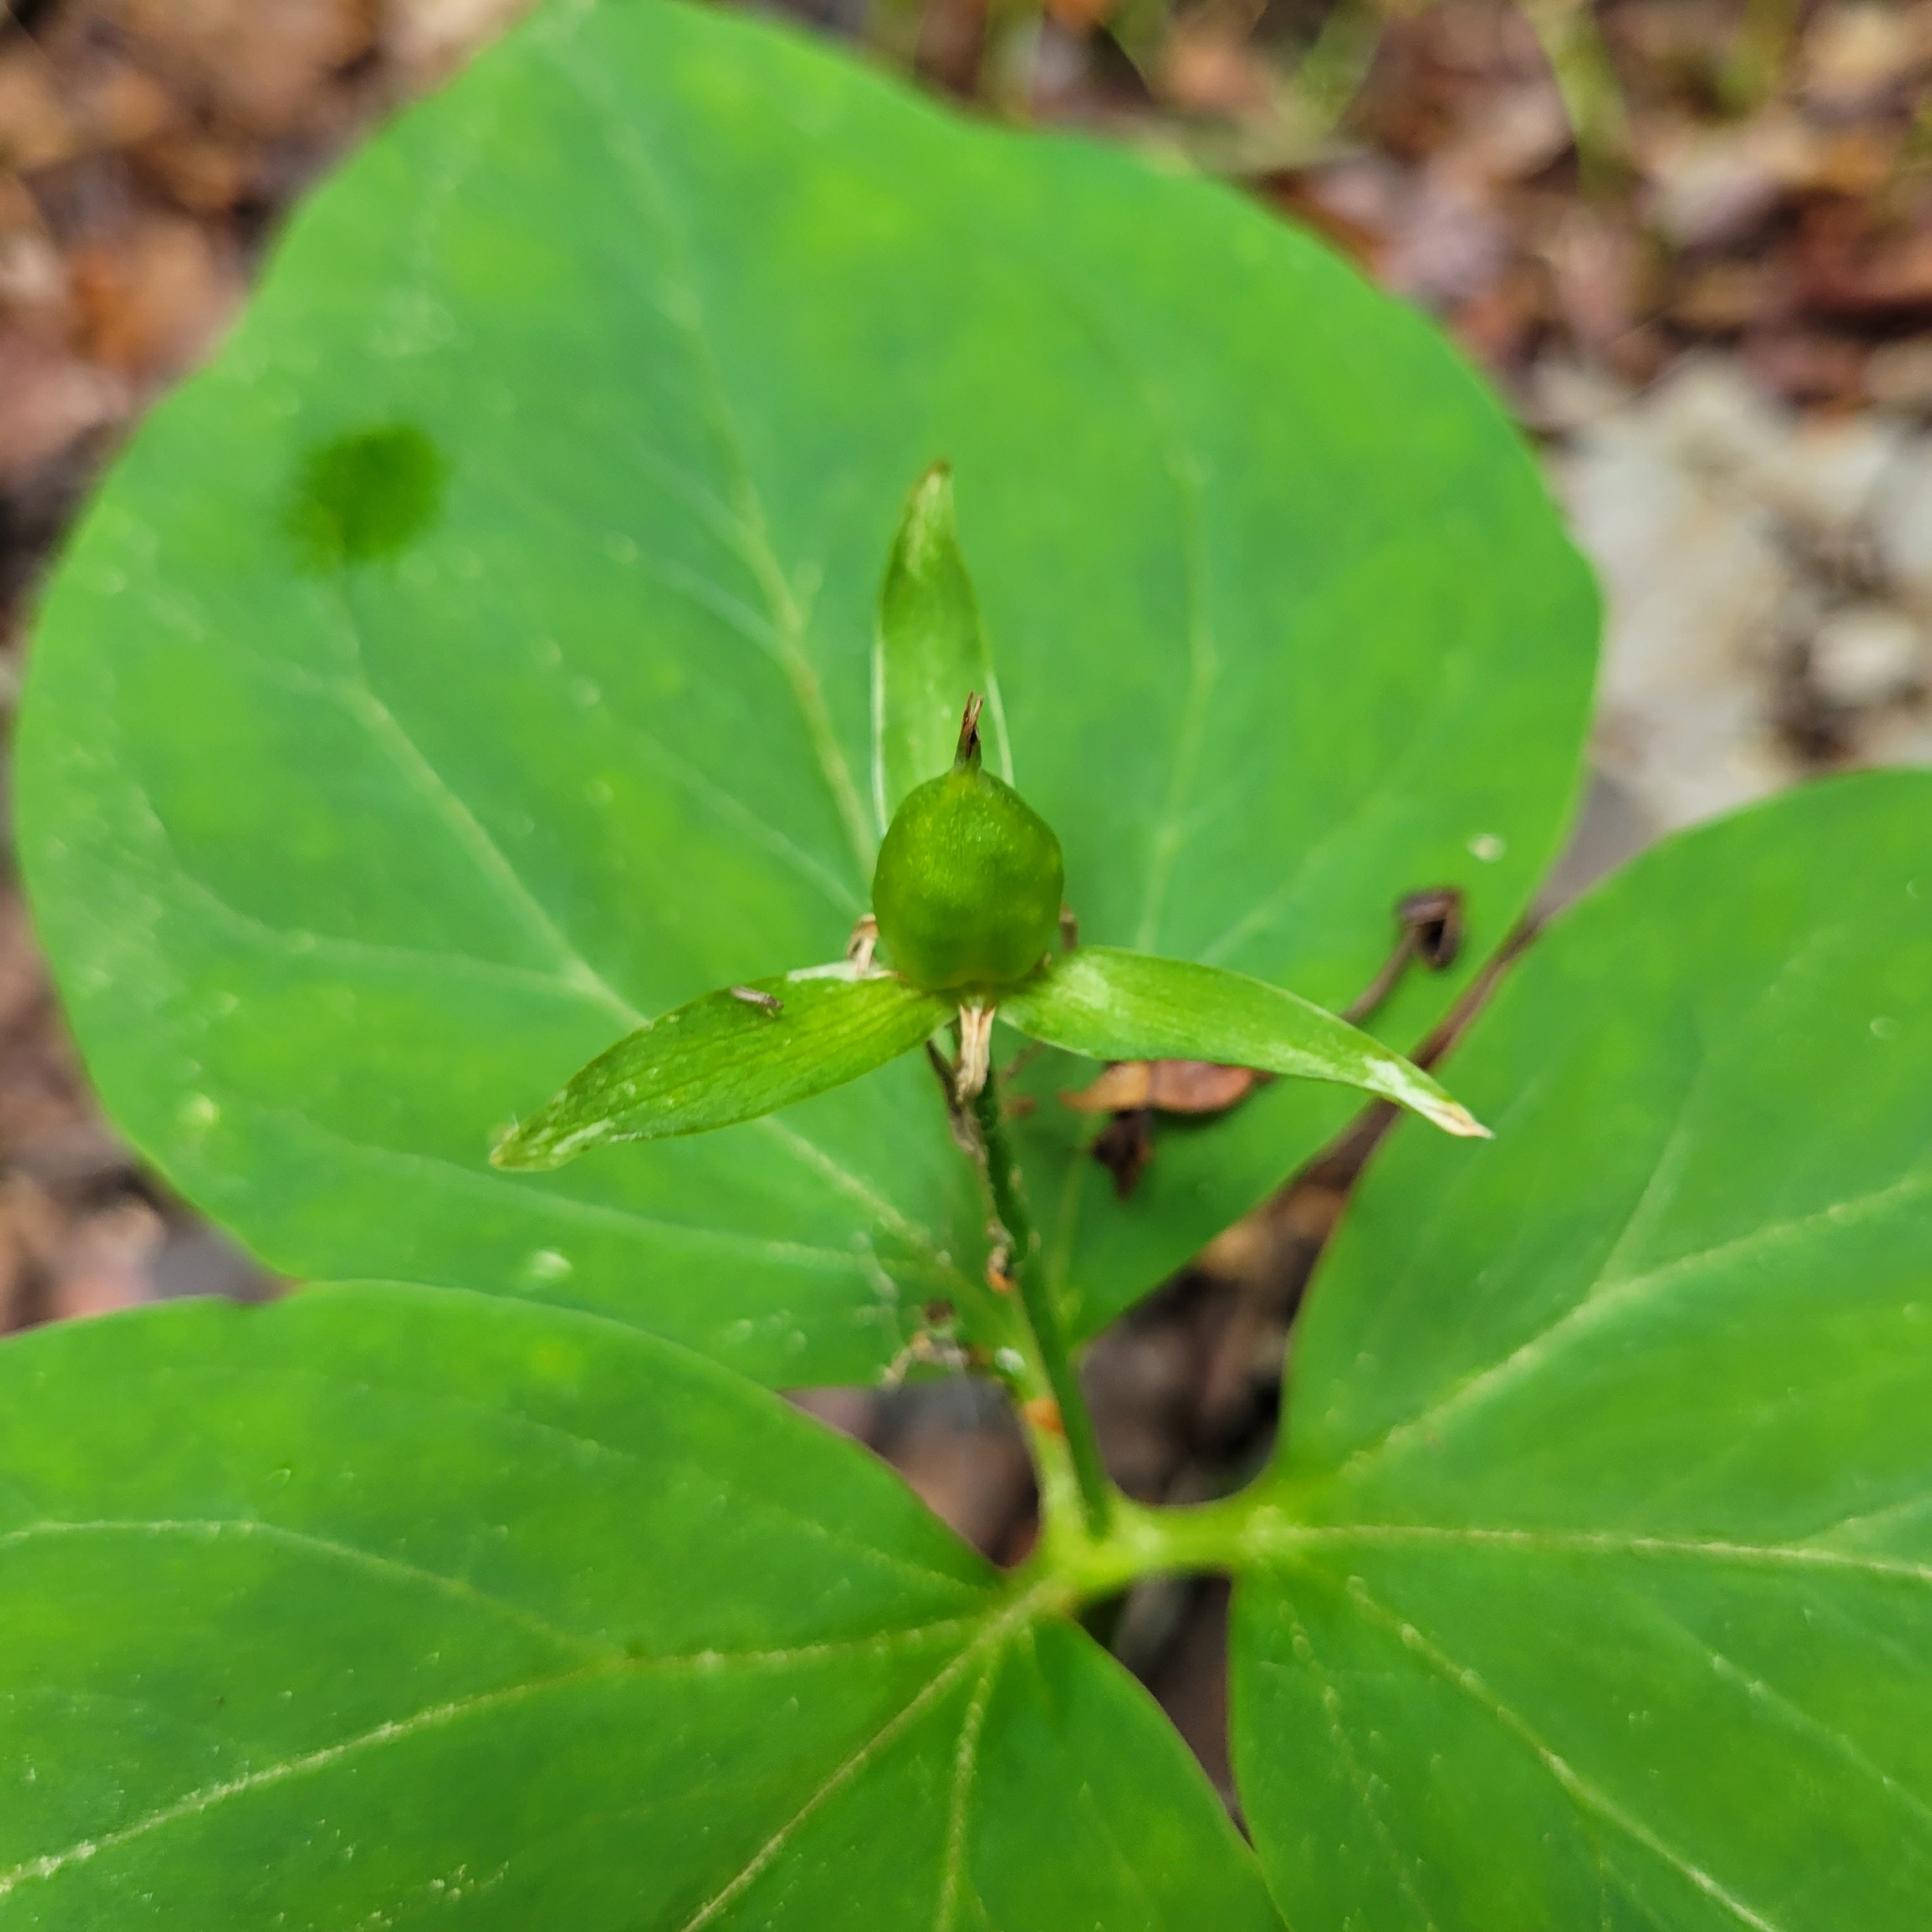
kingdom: Plantae
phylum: Tracheophyta
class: Liliopsida
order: Liliales
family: Melanthiaceae
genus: Trillium
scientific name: Trillium undulatum
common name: Paint trillium
